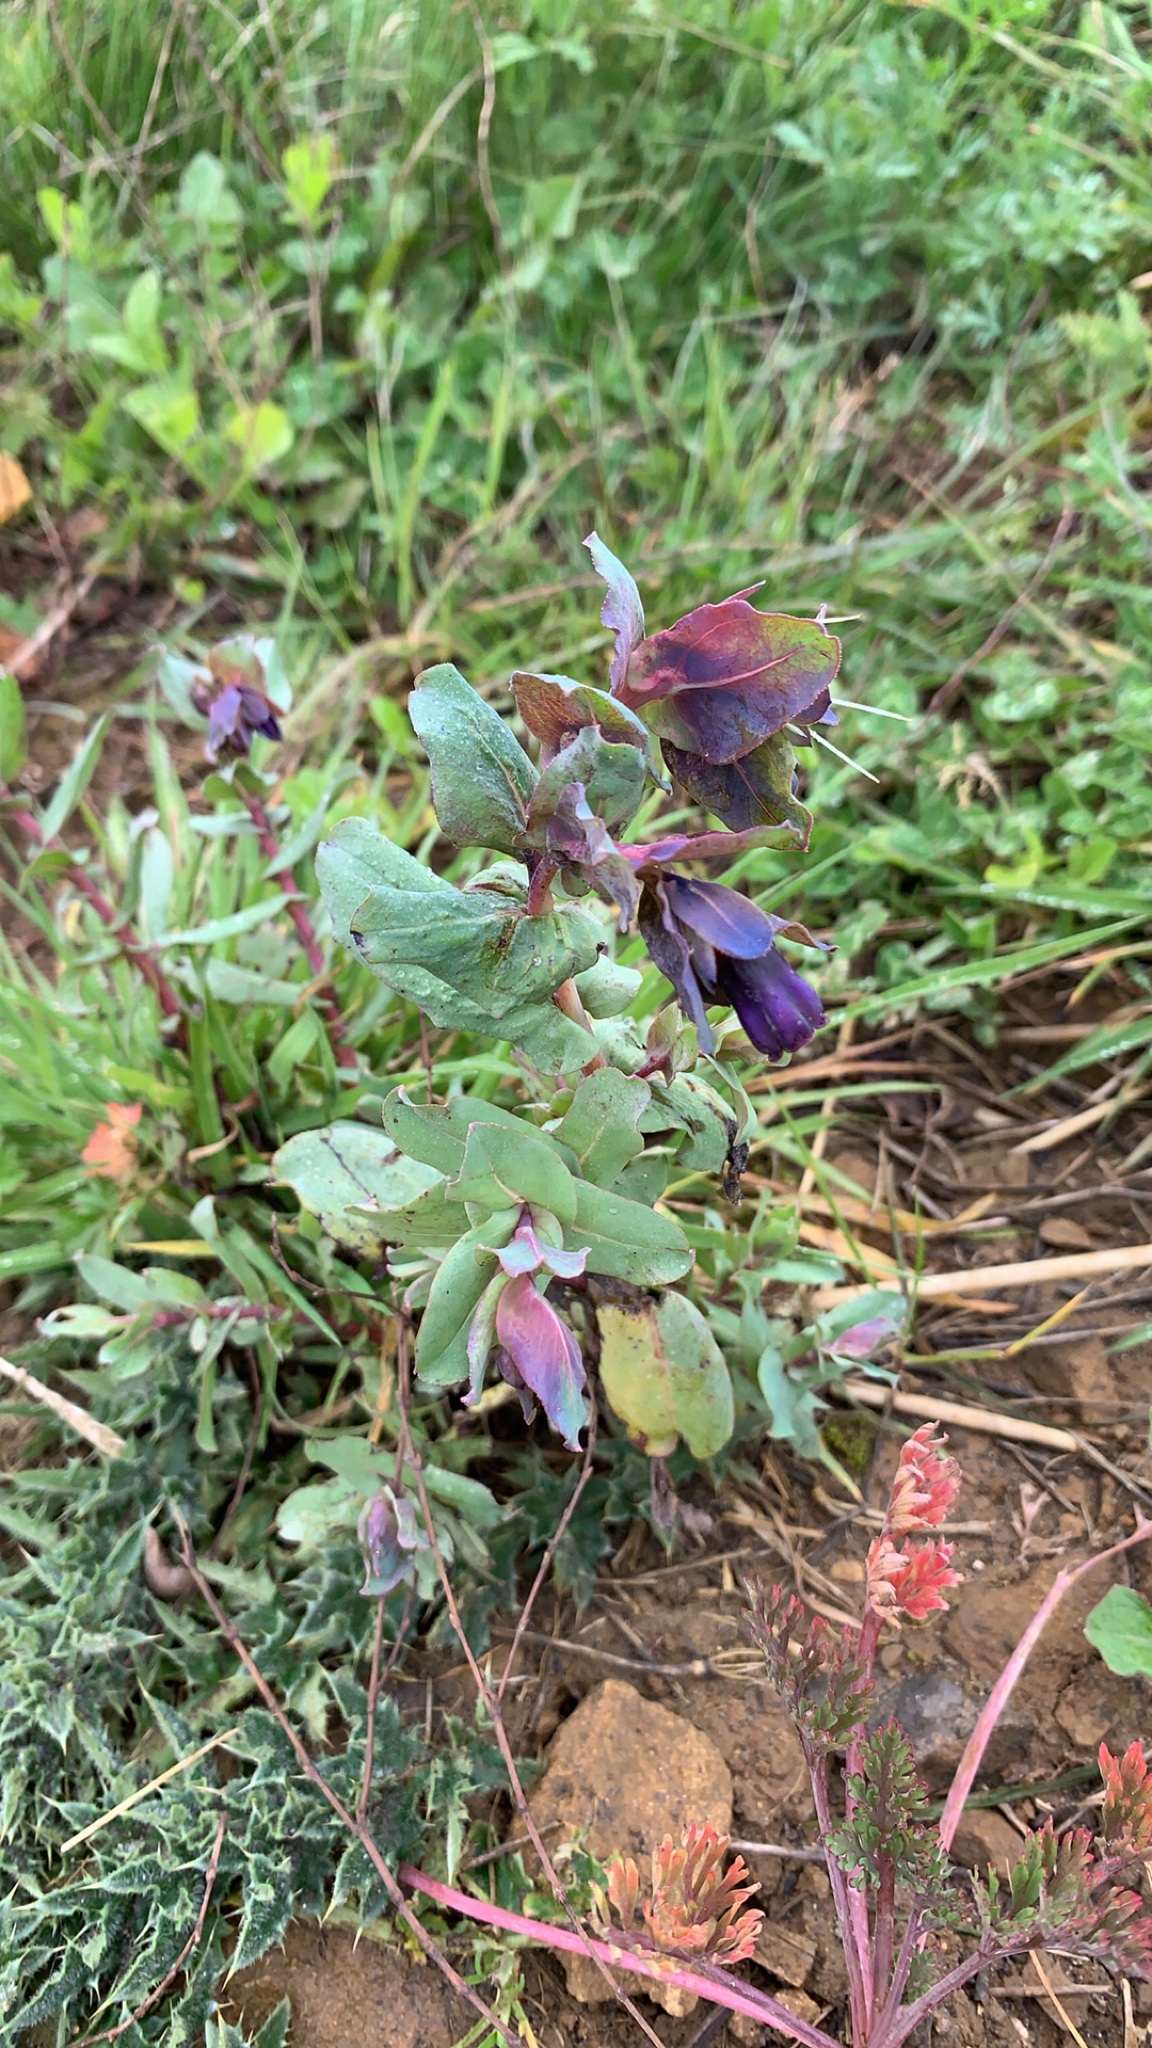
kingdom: Plantae
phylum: Tracheophyta
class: Magnoliopsida
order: Boraginales
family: Boraginaceae
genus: Cerinthe
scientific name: Cerinthe major
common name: Greater honeywort
